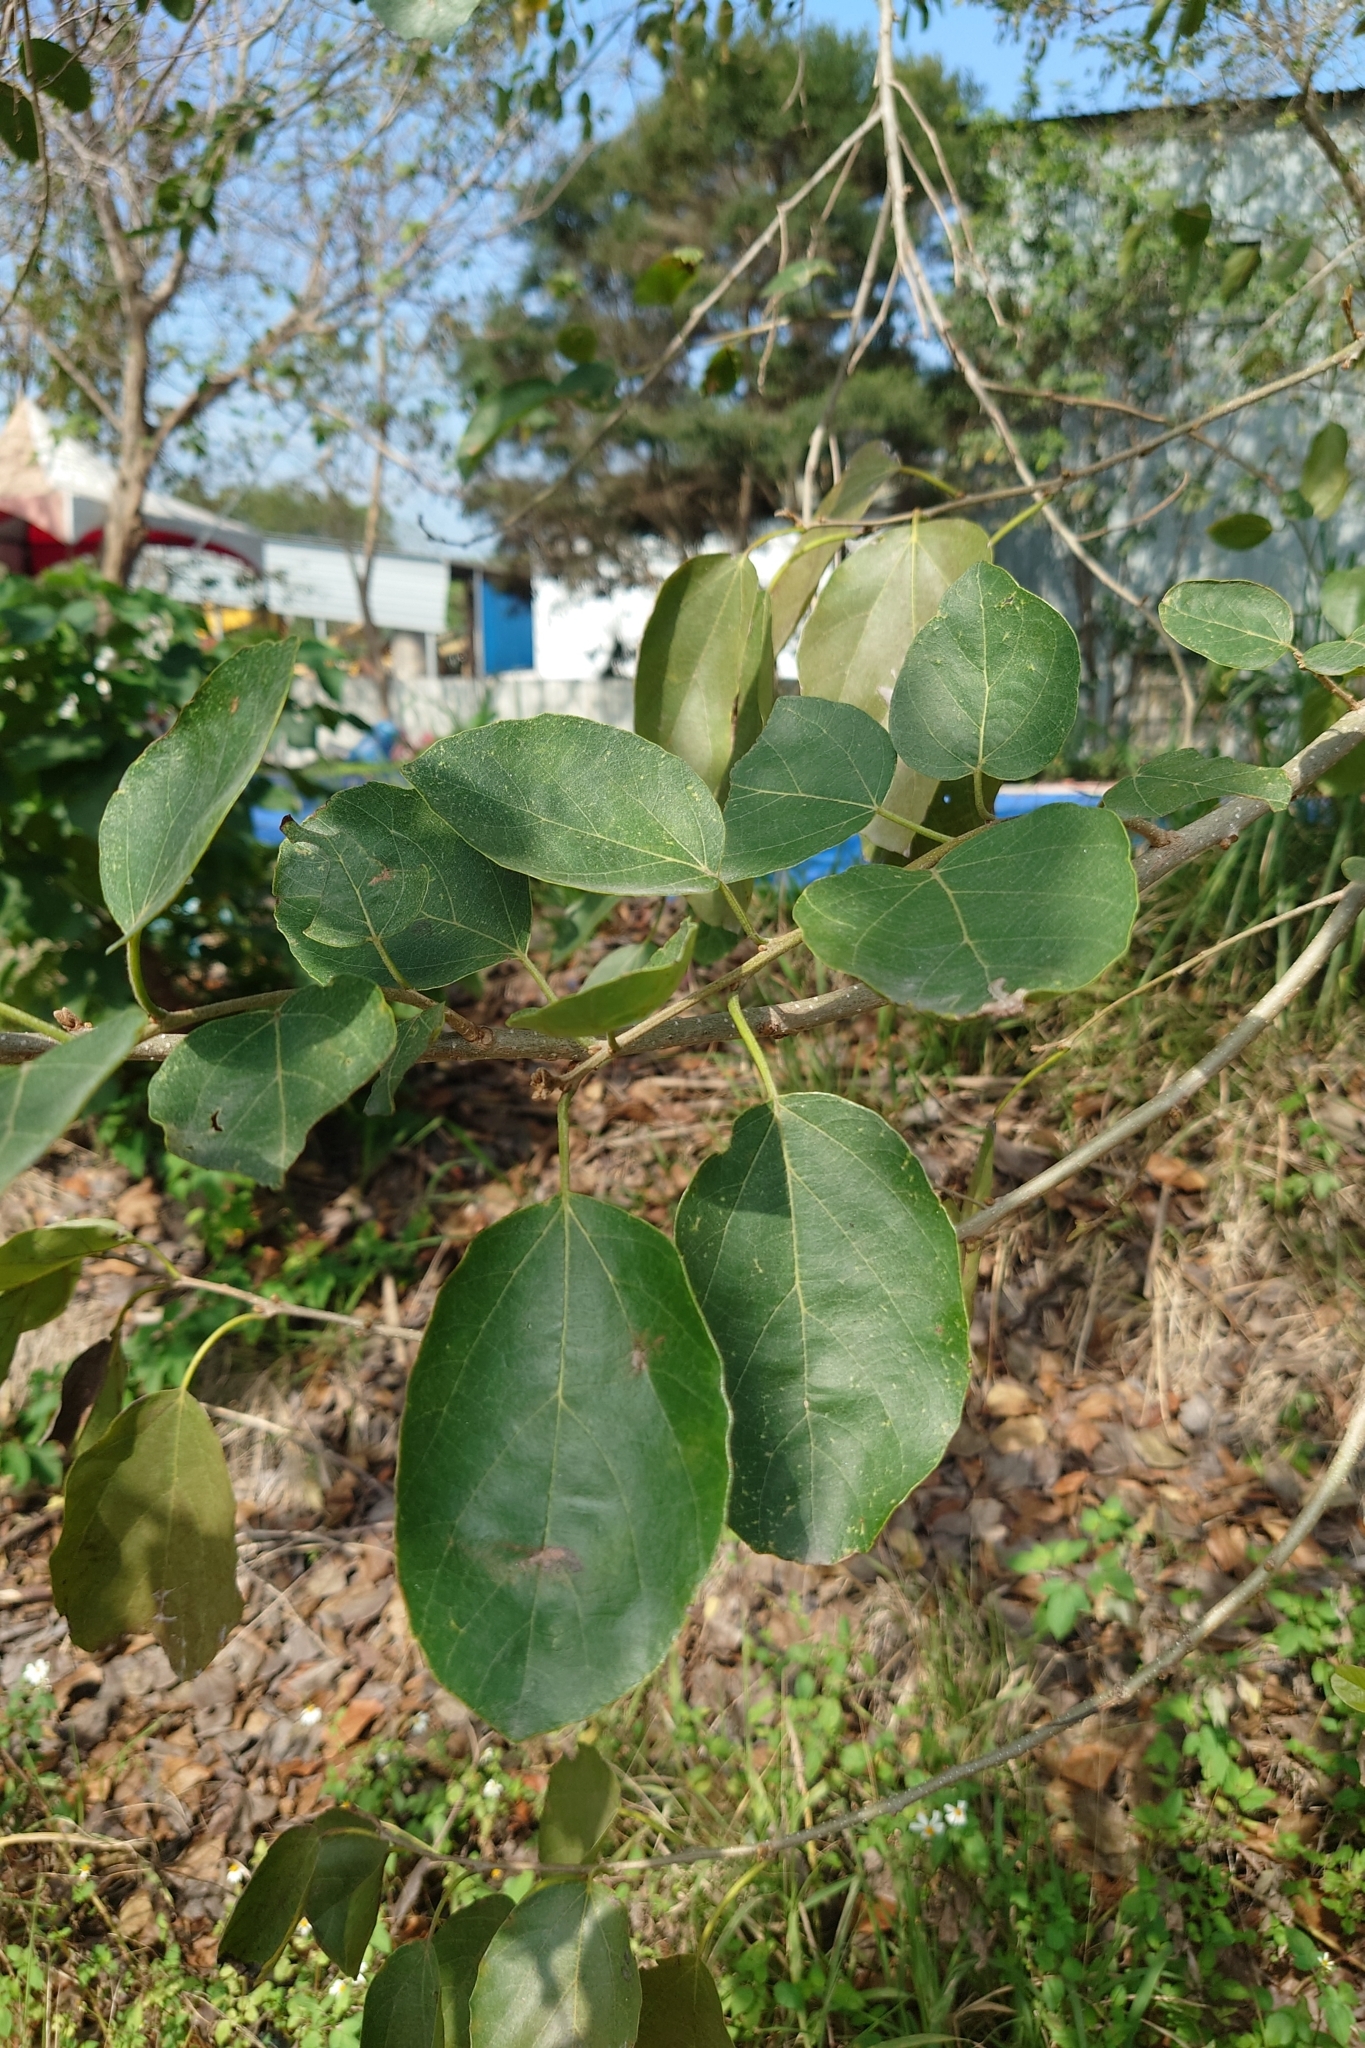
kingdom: Plantae
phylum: Tracheophyta
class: Magnoliopsida
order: Boraginales
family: Cordiaceae
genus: Cordia
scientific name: Cordia dichotoma
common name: Fragrant manjack
